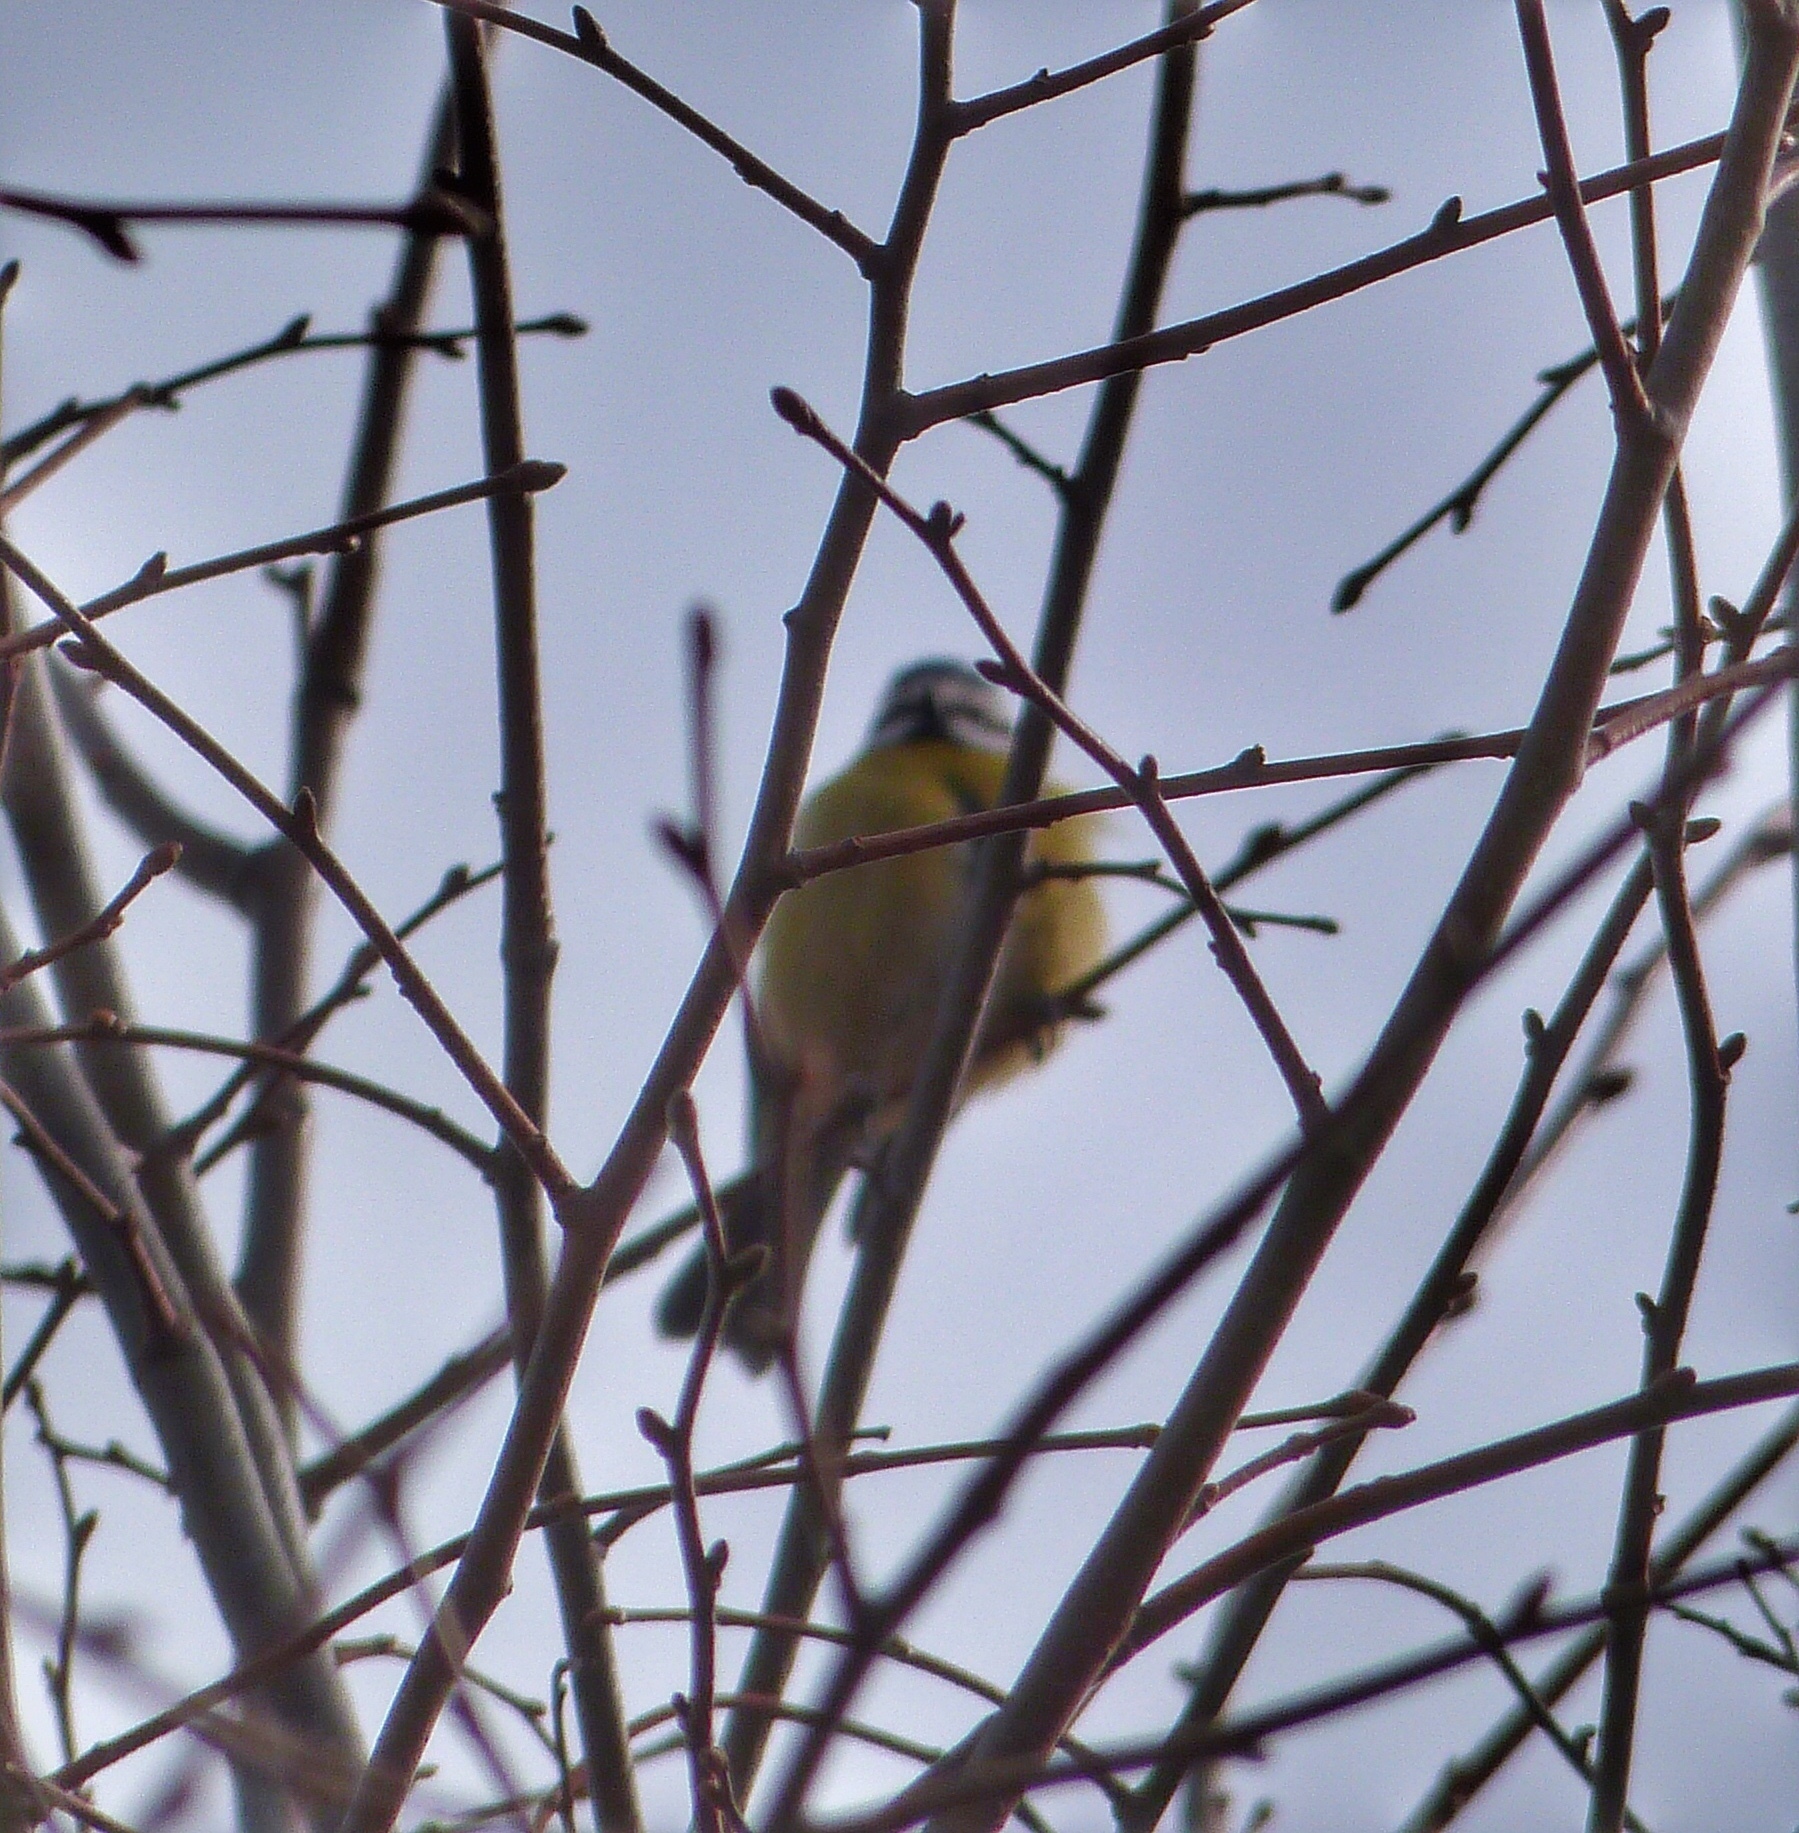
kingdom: Animalia
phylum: Chordata
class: Aves
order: Passeriformes
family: Paridae
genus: Cyanistes
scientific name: Cyanistes caeruleus
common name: Eurasian blue tit
